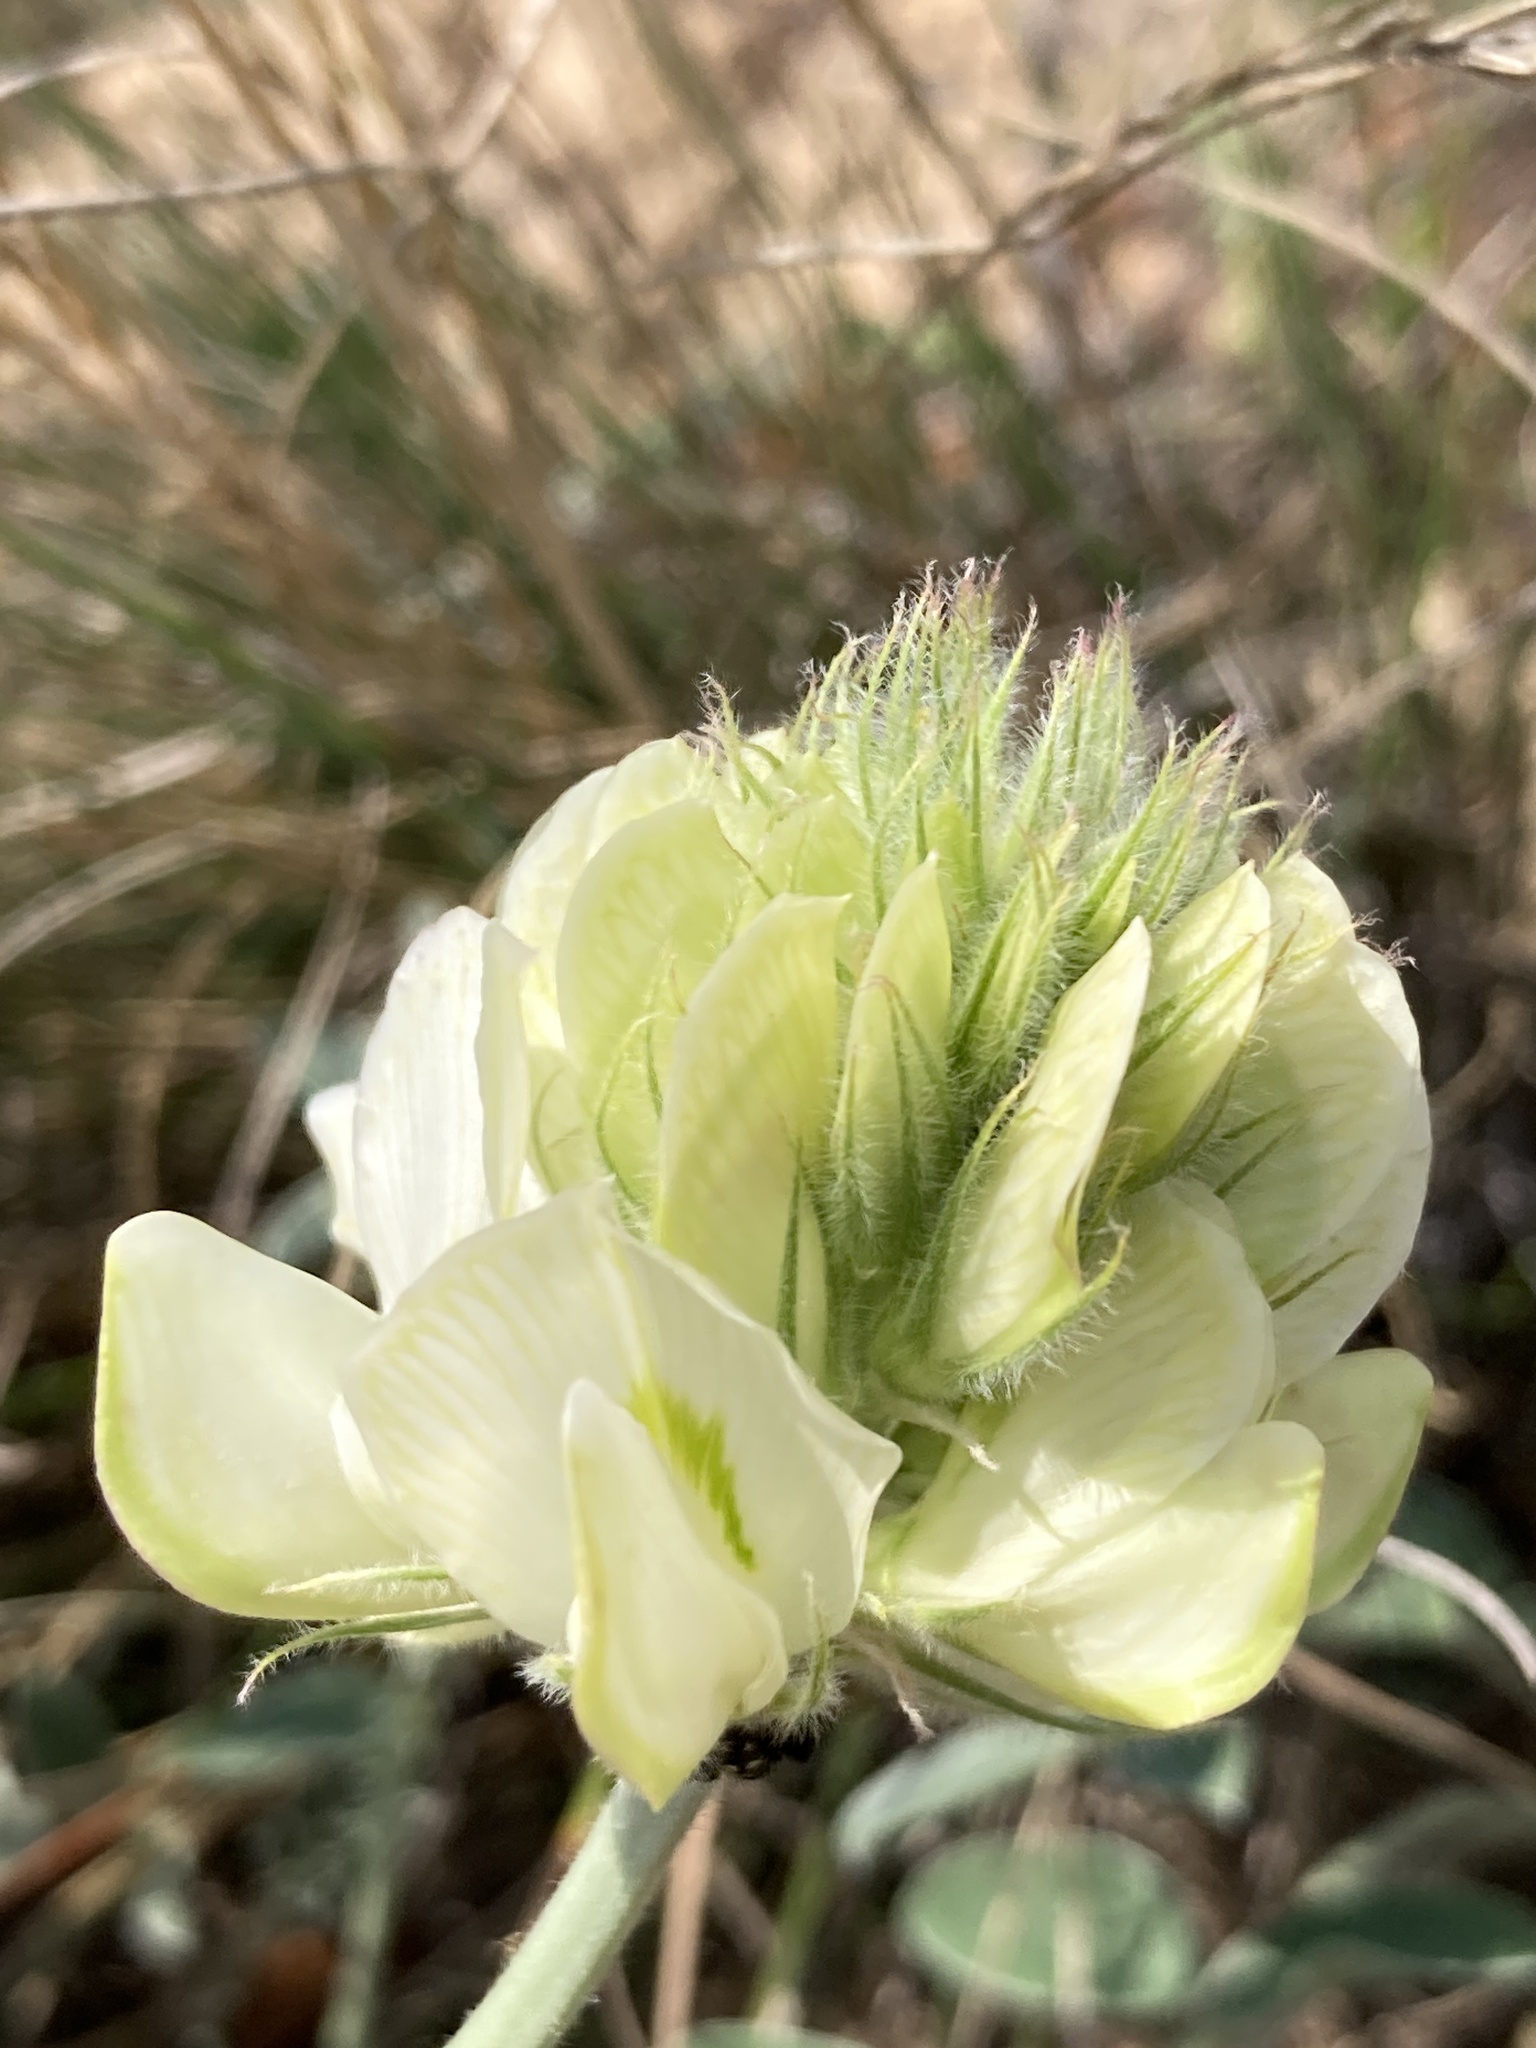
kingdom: Plantae
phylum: Tracheophyta
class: Magnoliopsida
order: Fabales
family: Fabaceae
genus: Hedysarum
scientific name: Hedysarum grandiflorum
